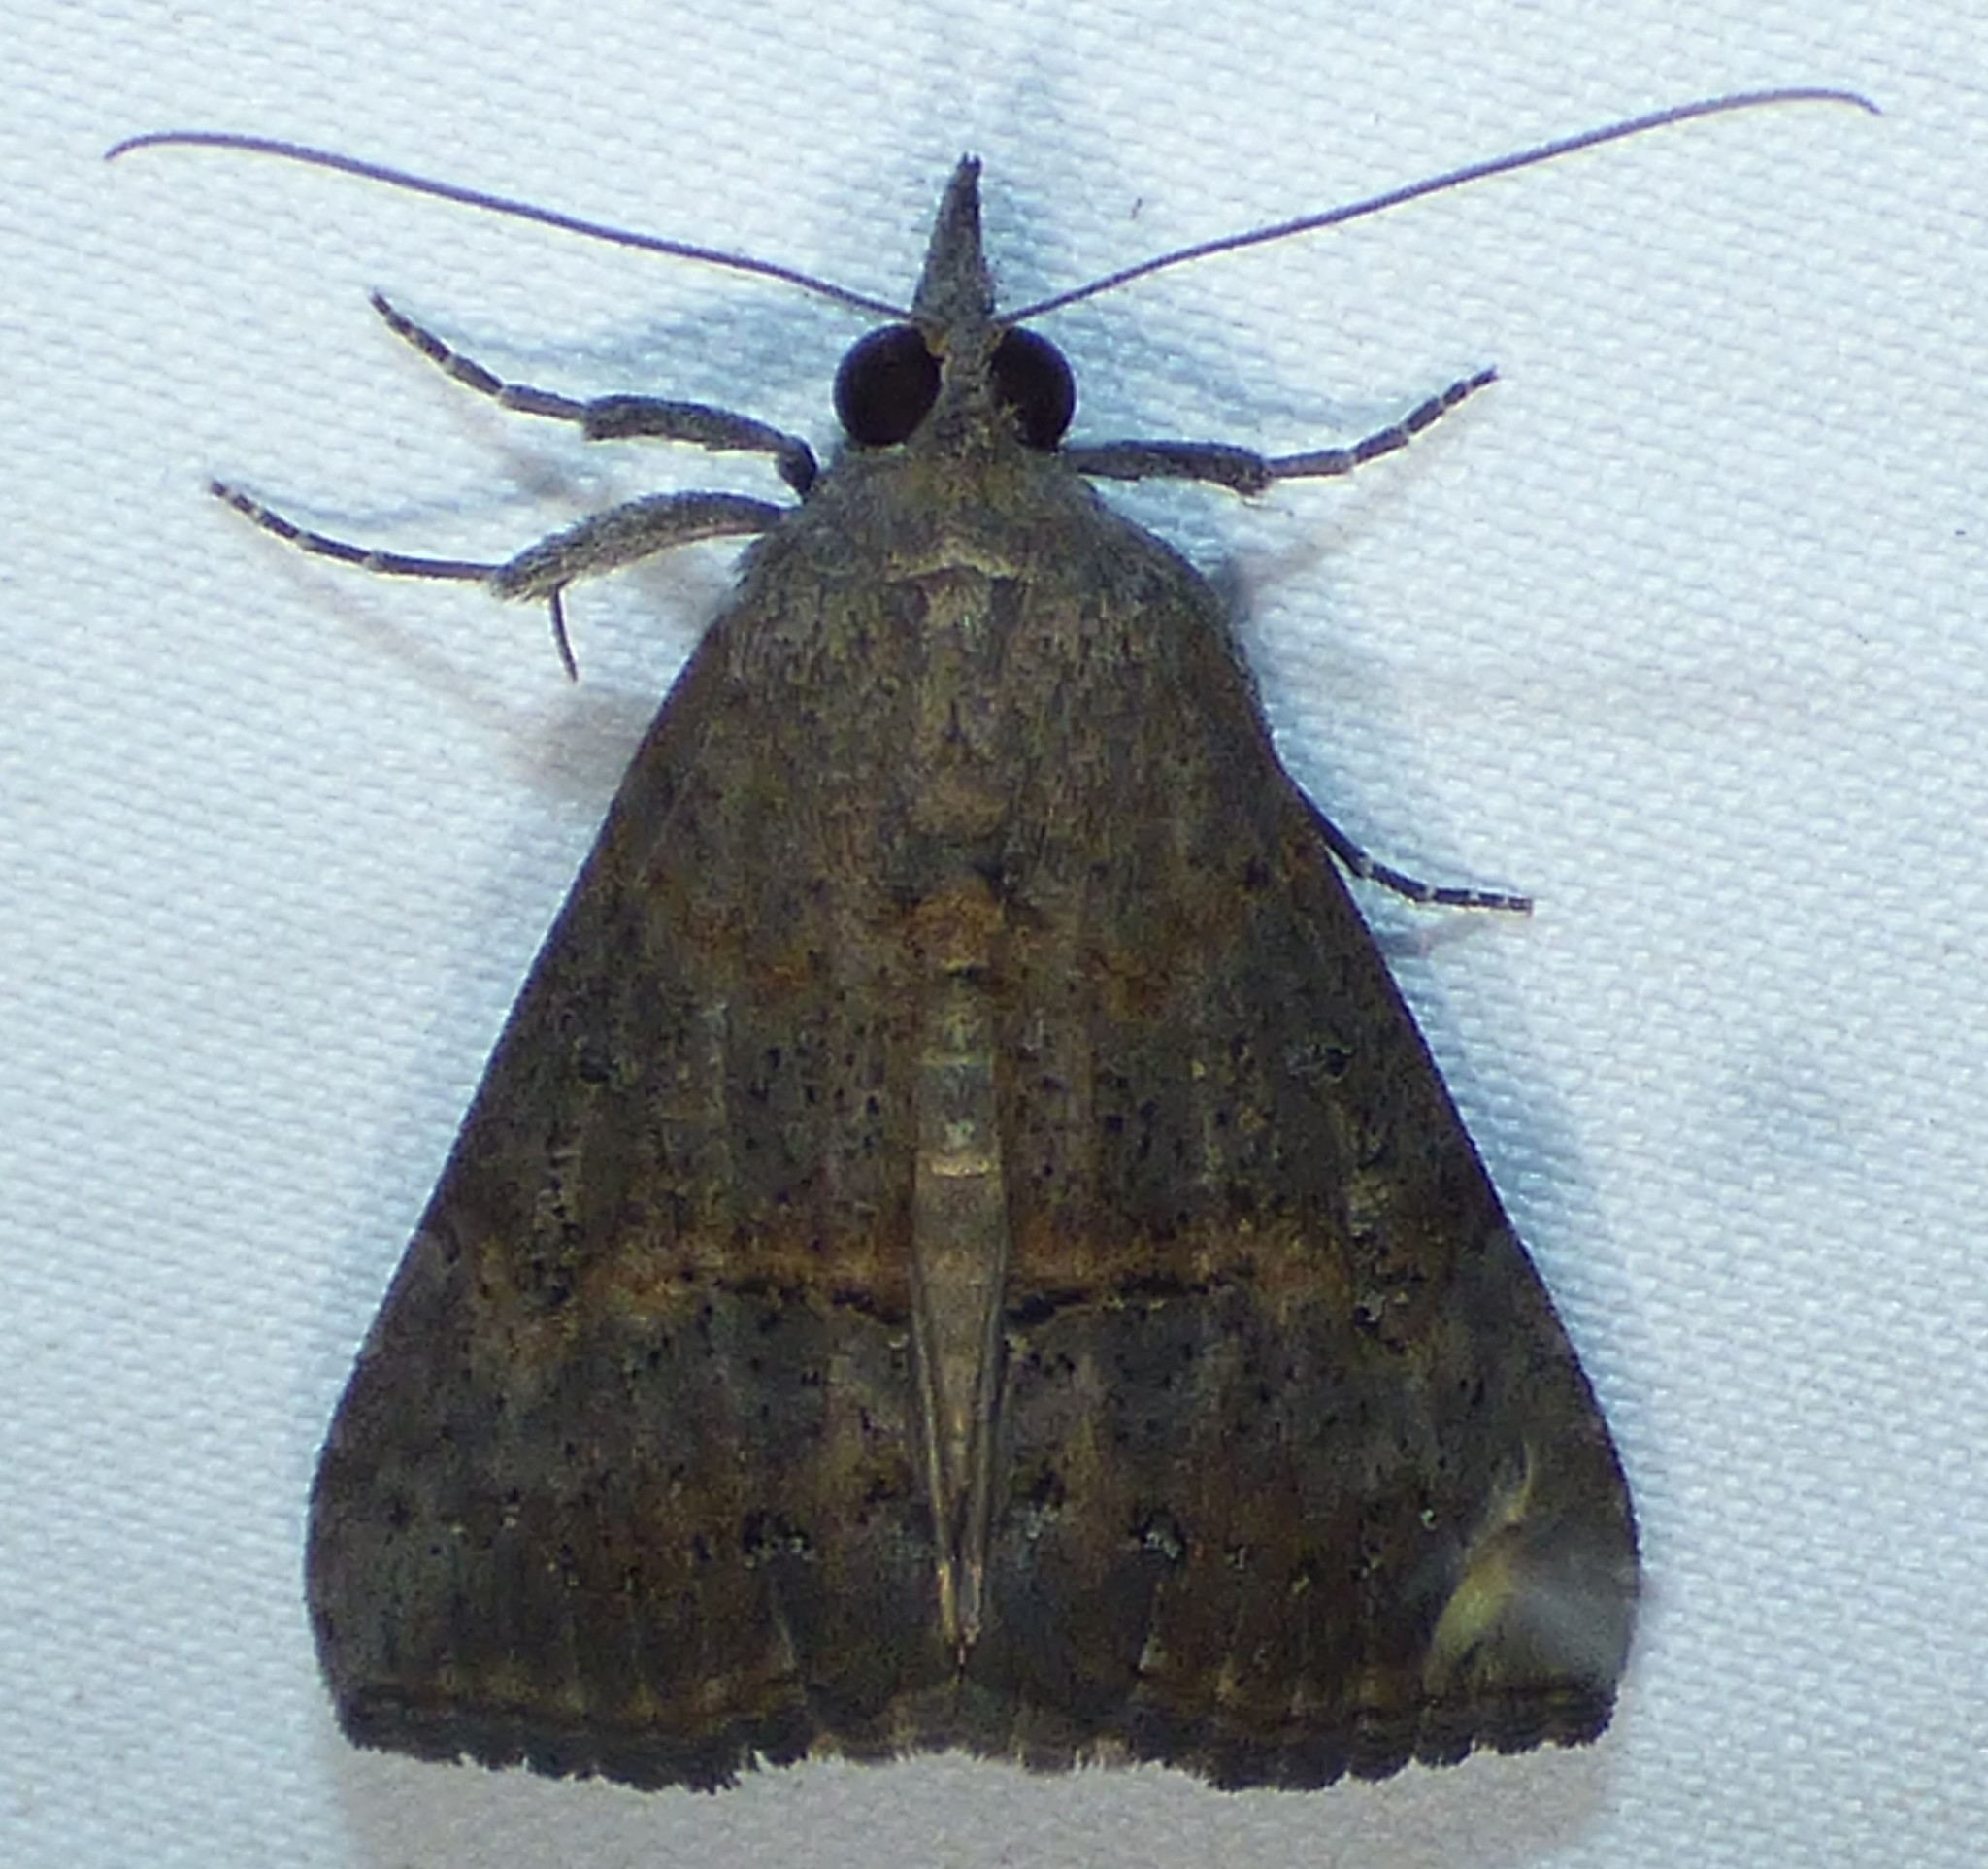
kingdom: Animalia
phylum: Arthropoda
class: Insecta
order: Lepidoptera
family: Erebidae
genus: Hypena
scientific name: Hypena scabra
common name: Green cloverworm
